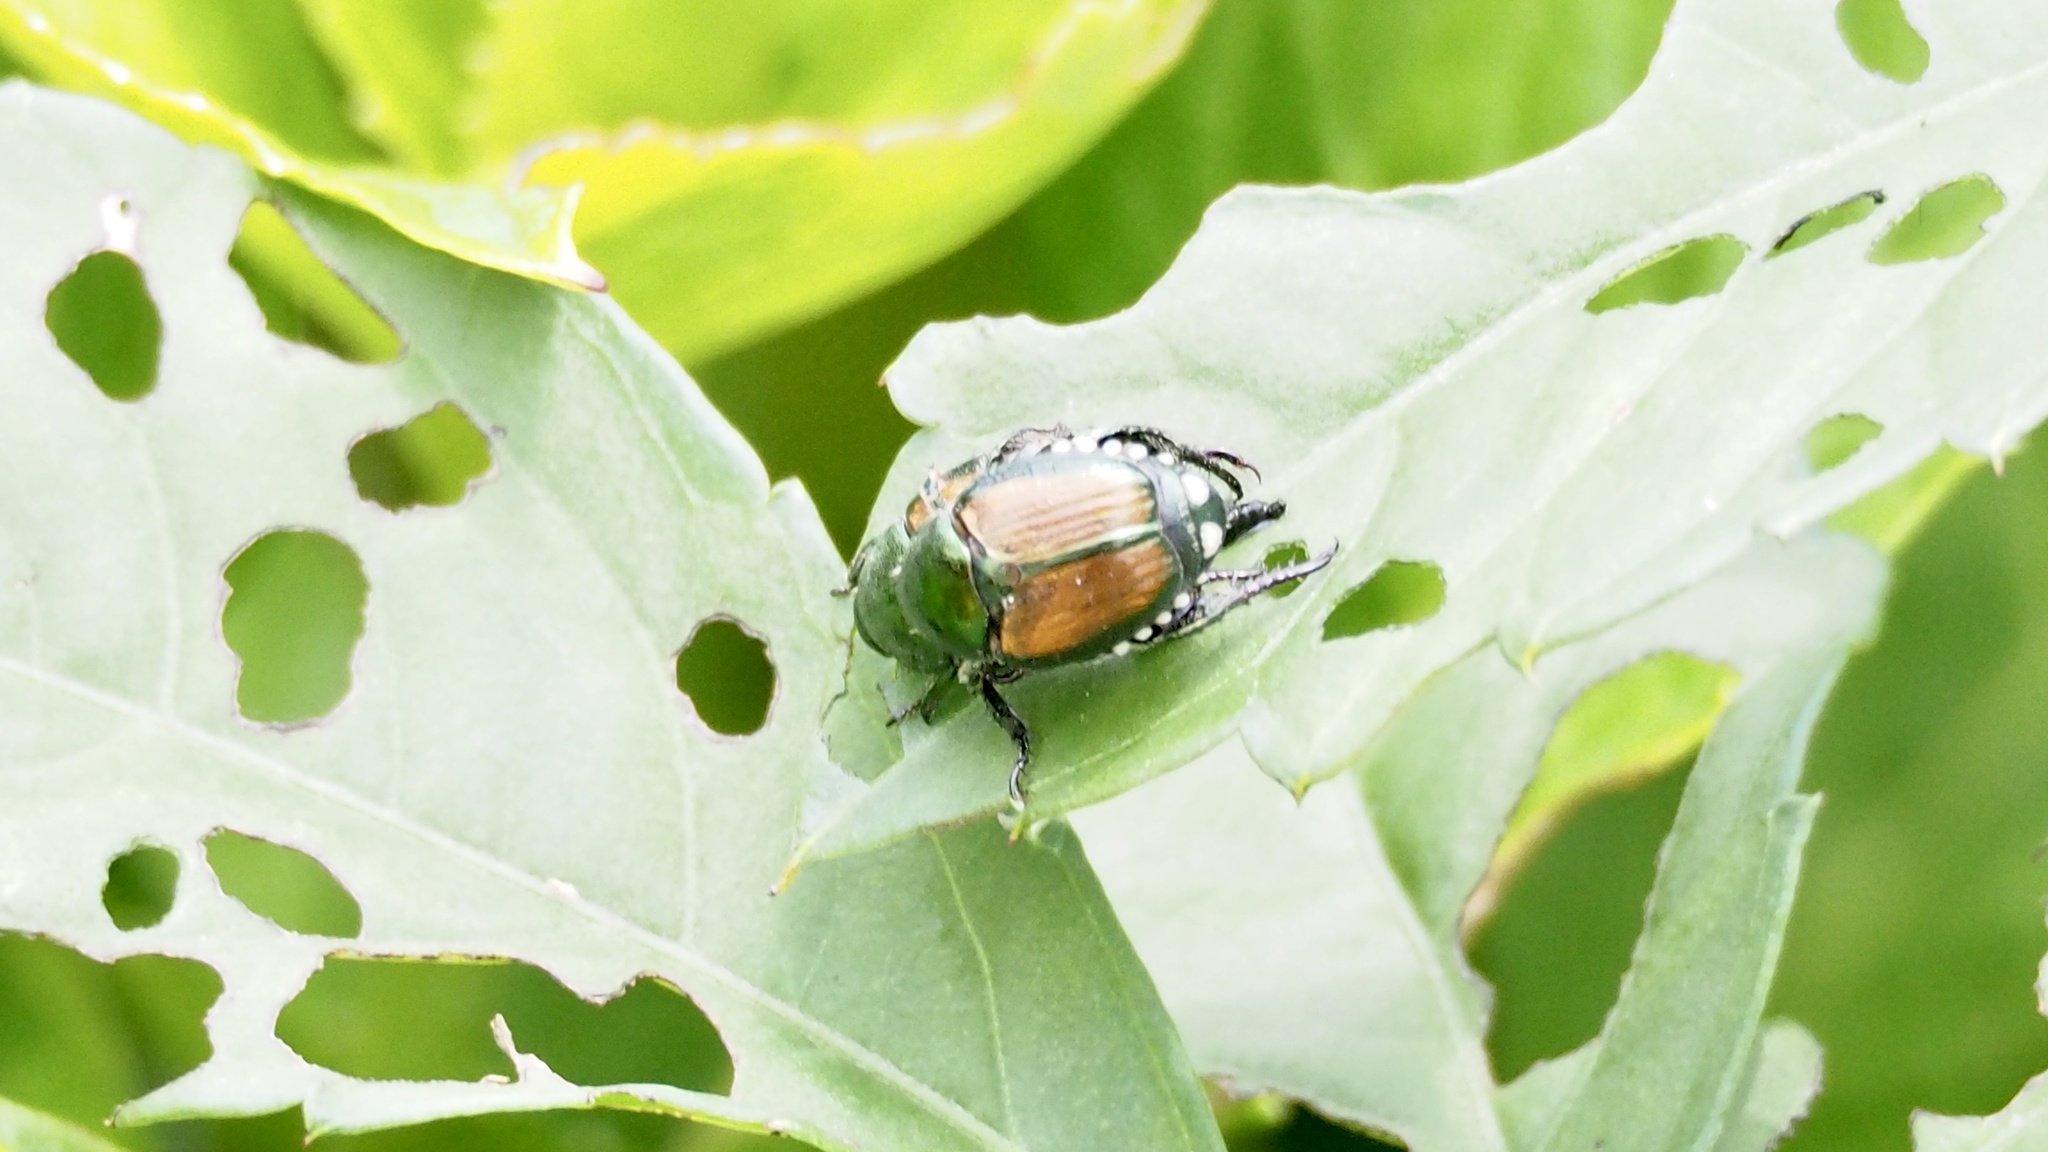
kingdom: Animalia
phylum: Arthropoda
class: Insecta
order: Coleoptera
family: Scarabaeidae
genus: Popillia
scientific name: Popillia japonica
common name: Japanese beetle
